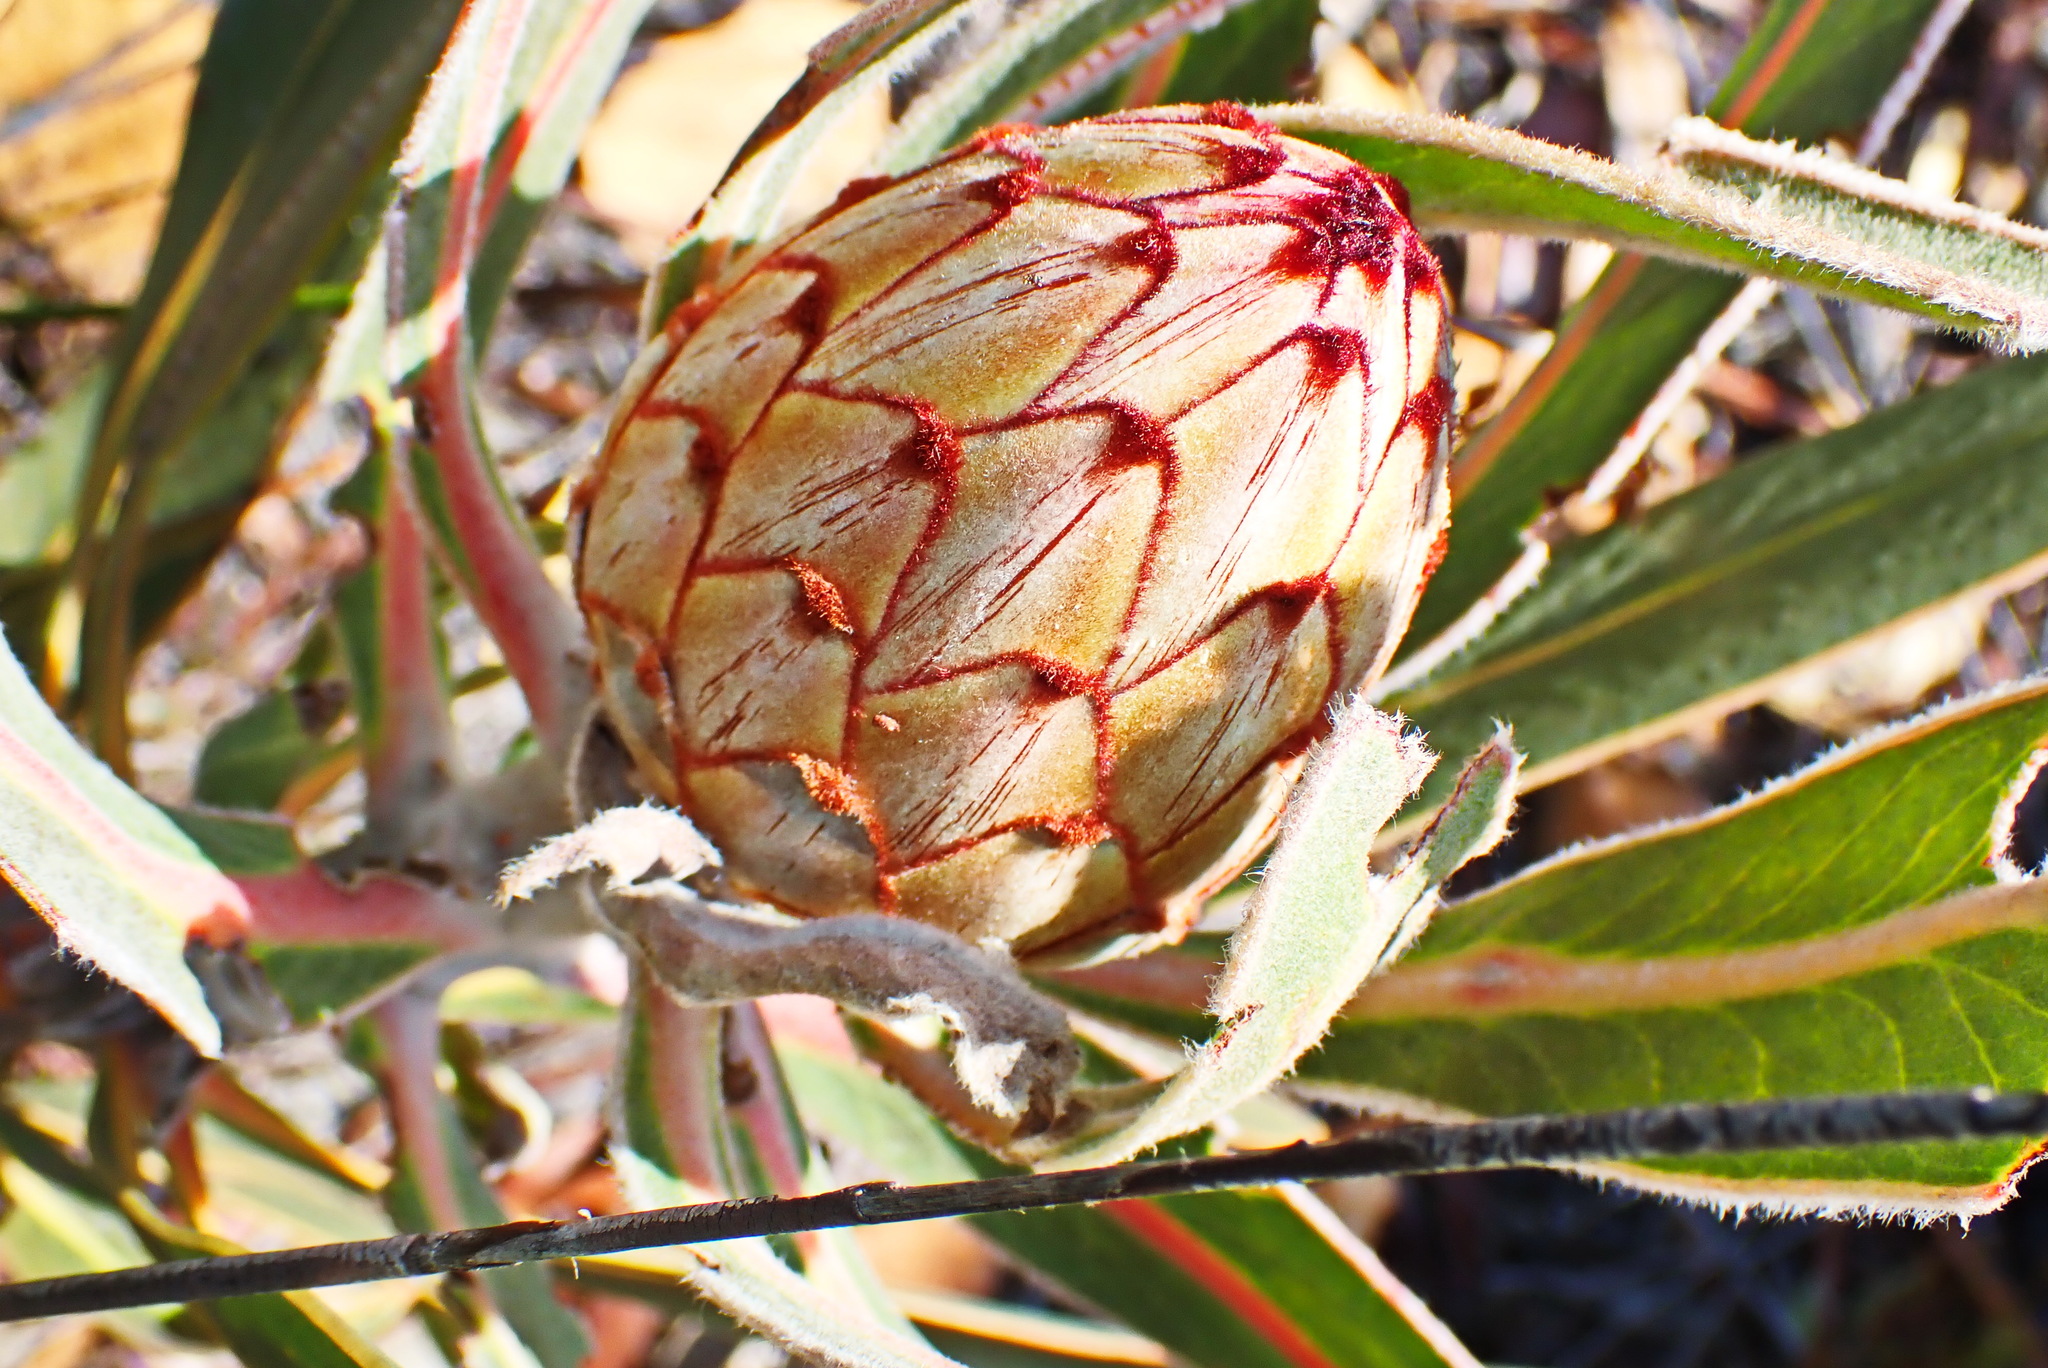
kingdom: Plantae
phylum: Tracheophyta
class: Magnoliopsida
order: Proteales
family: Proteaceae
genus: Protea
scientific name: Protea lorifolia
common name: Strap-leaved protea
